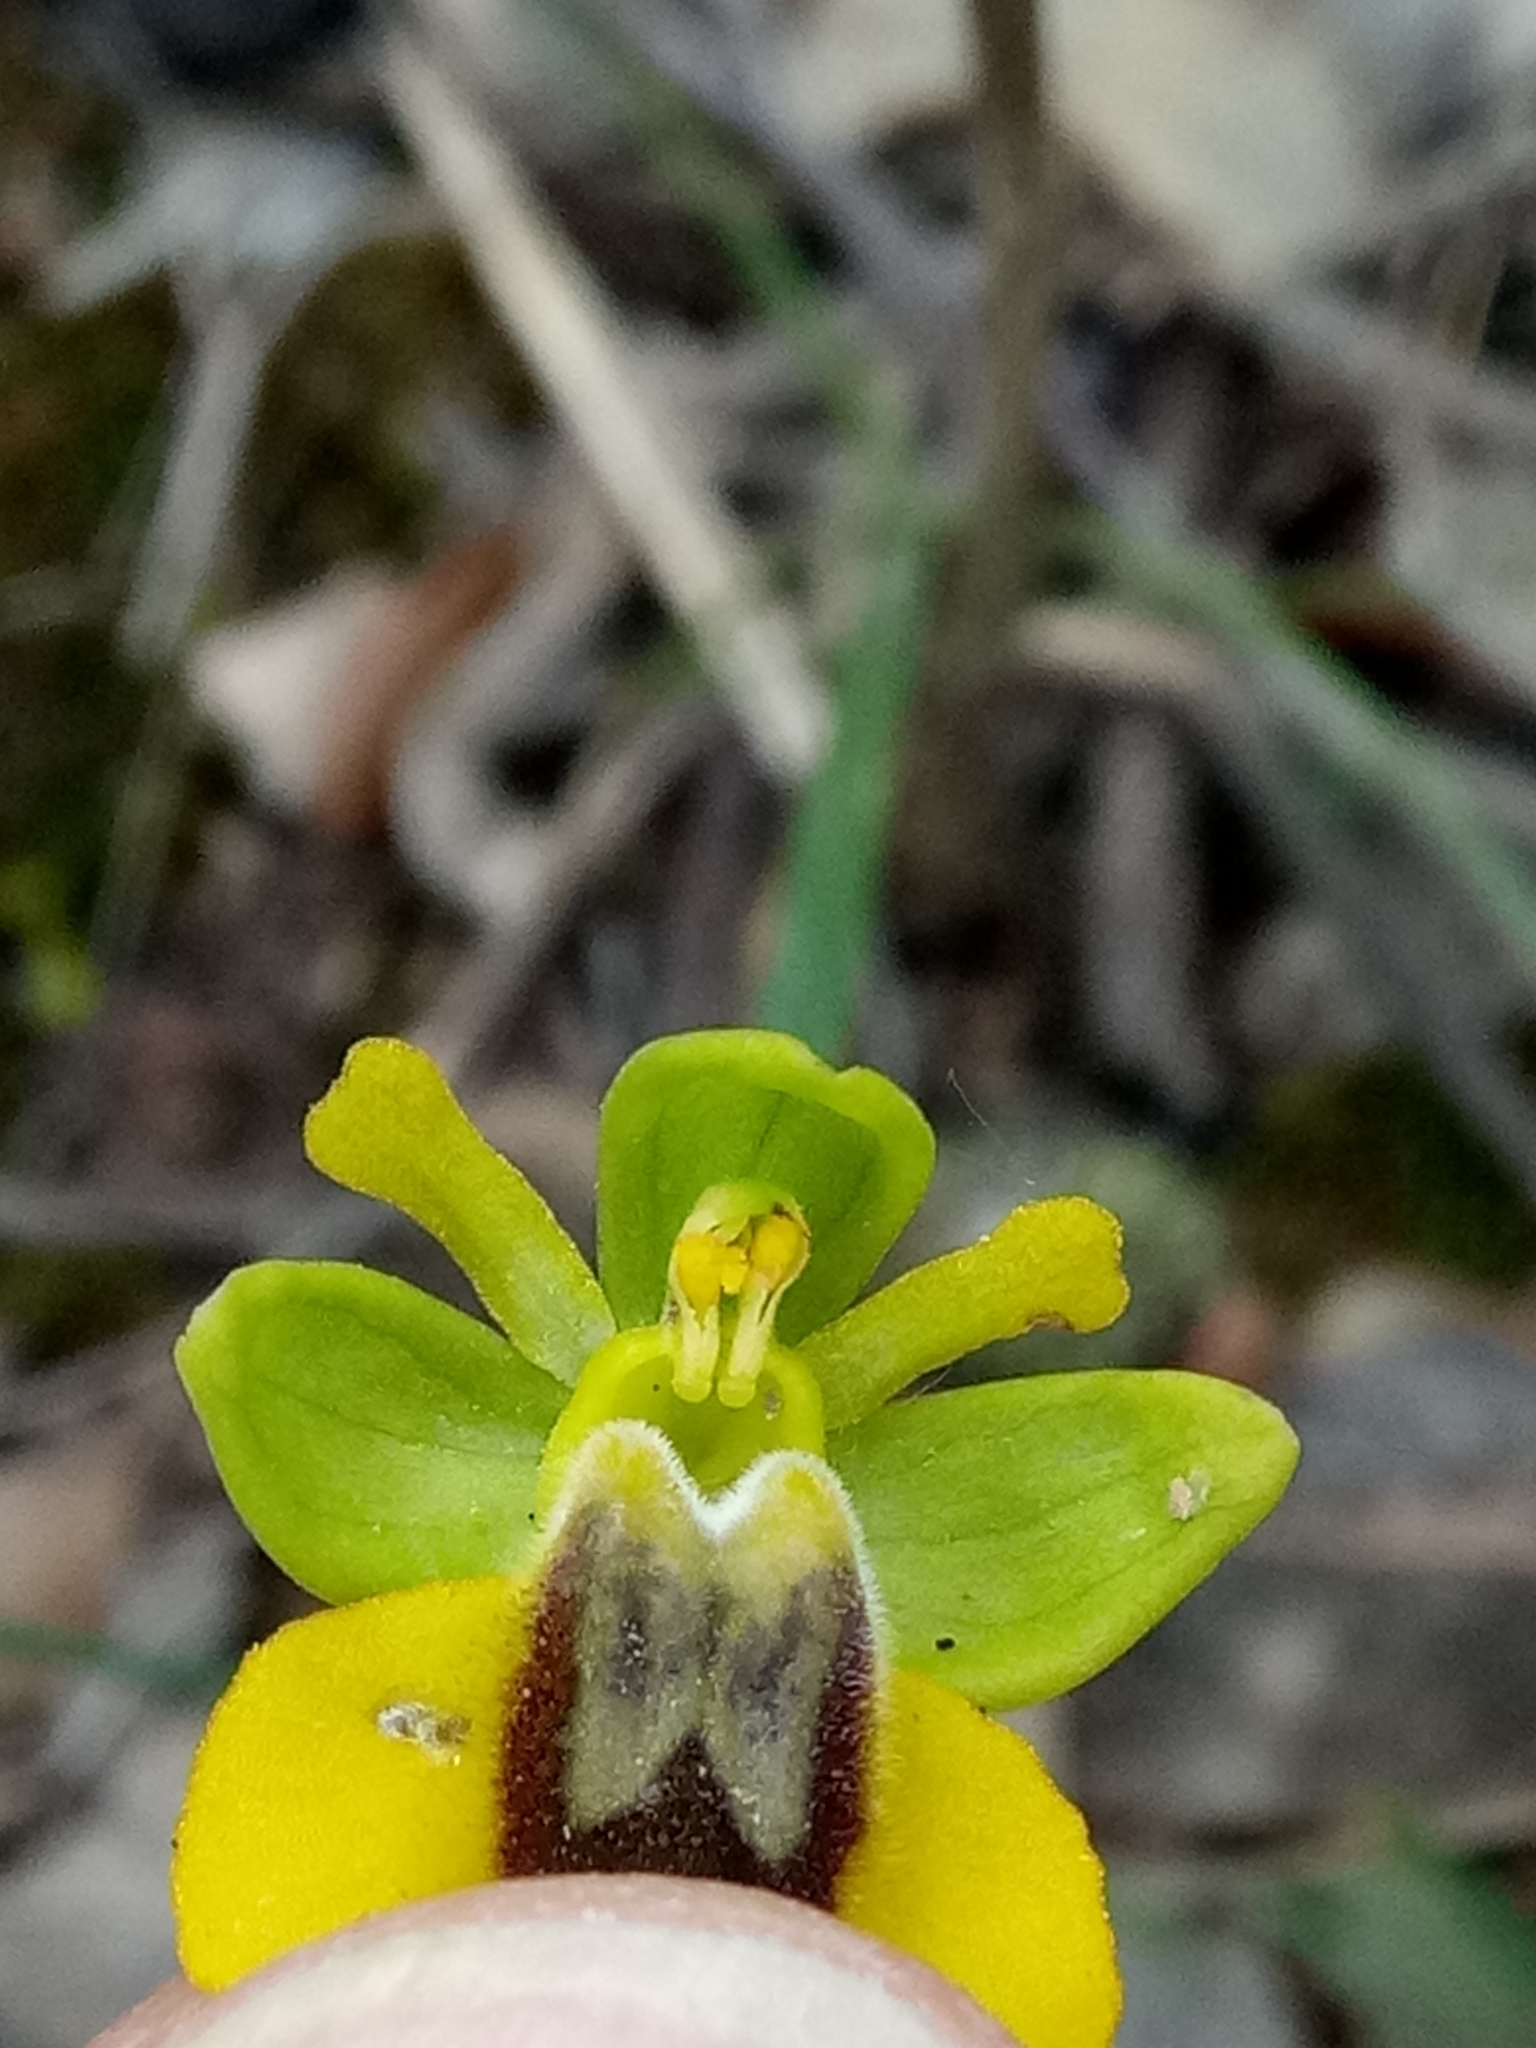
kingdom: Plantae
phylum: Tracheophyta
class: Liliopsida
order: Asparagales
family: Orchidaceae
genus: Ophrys
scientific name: Ophrys lutea
